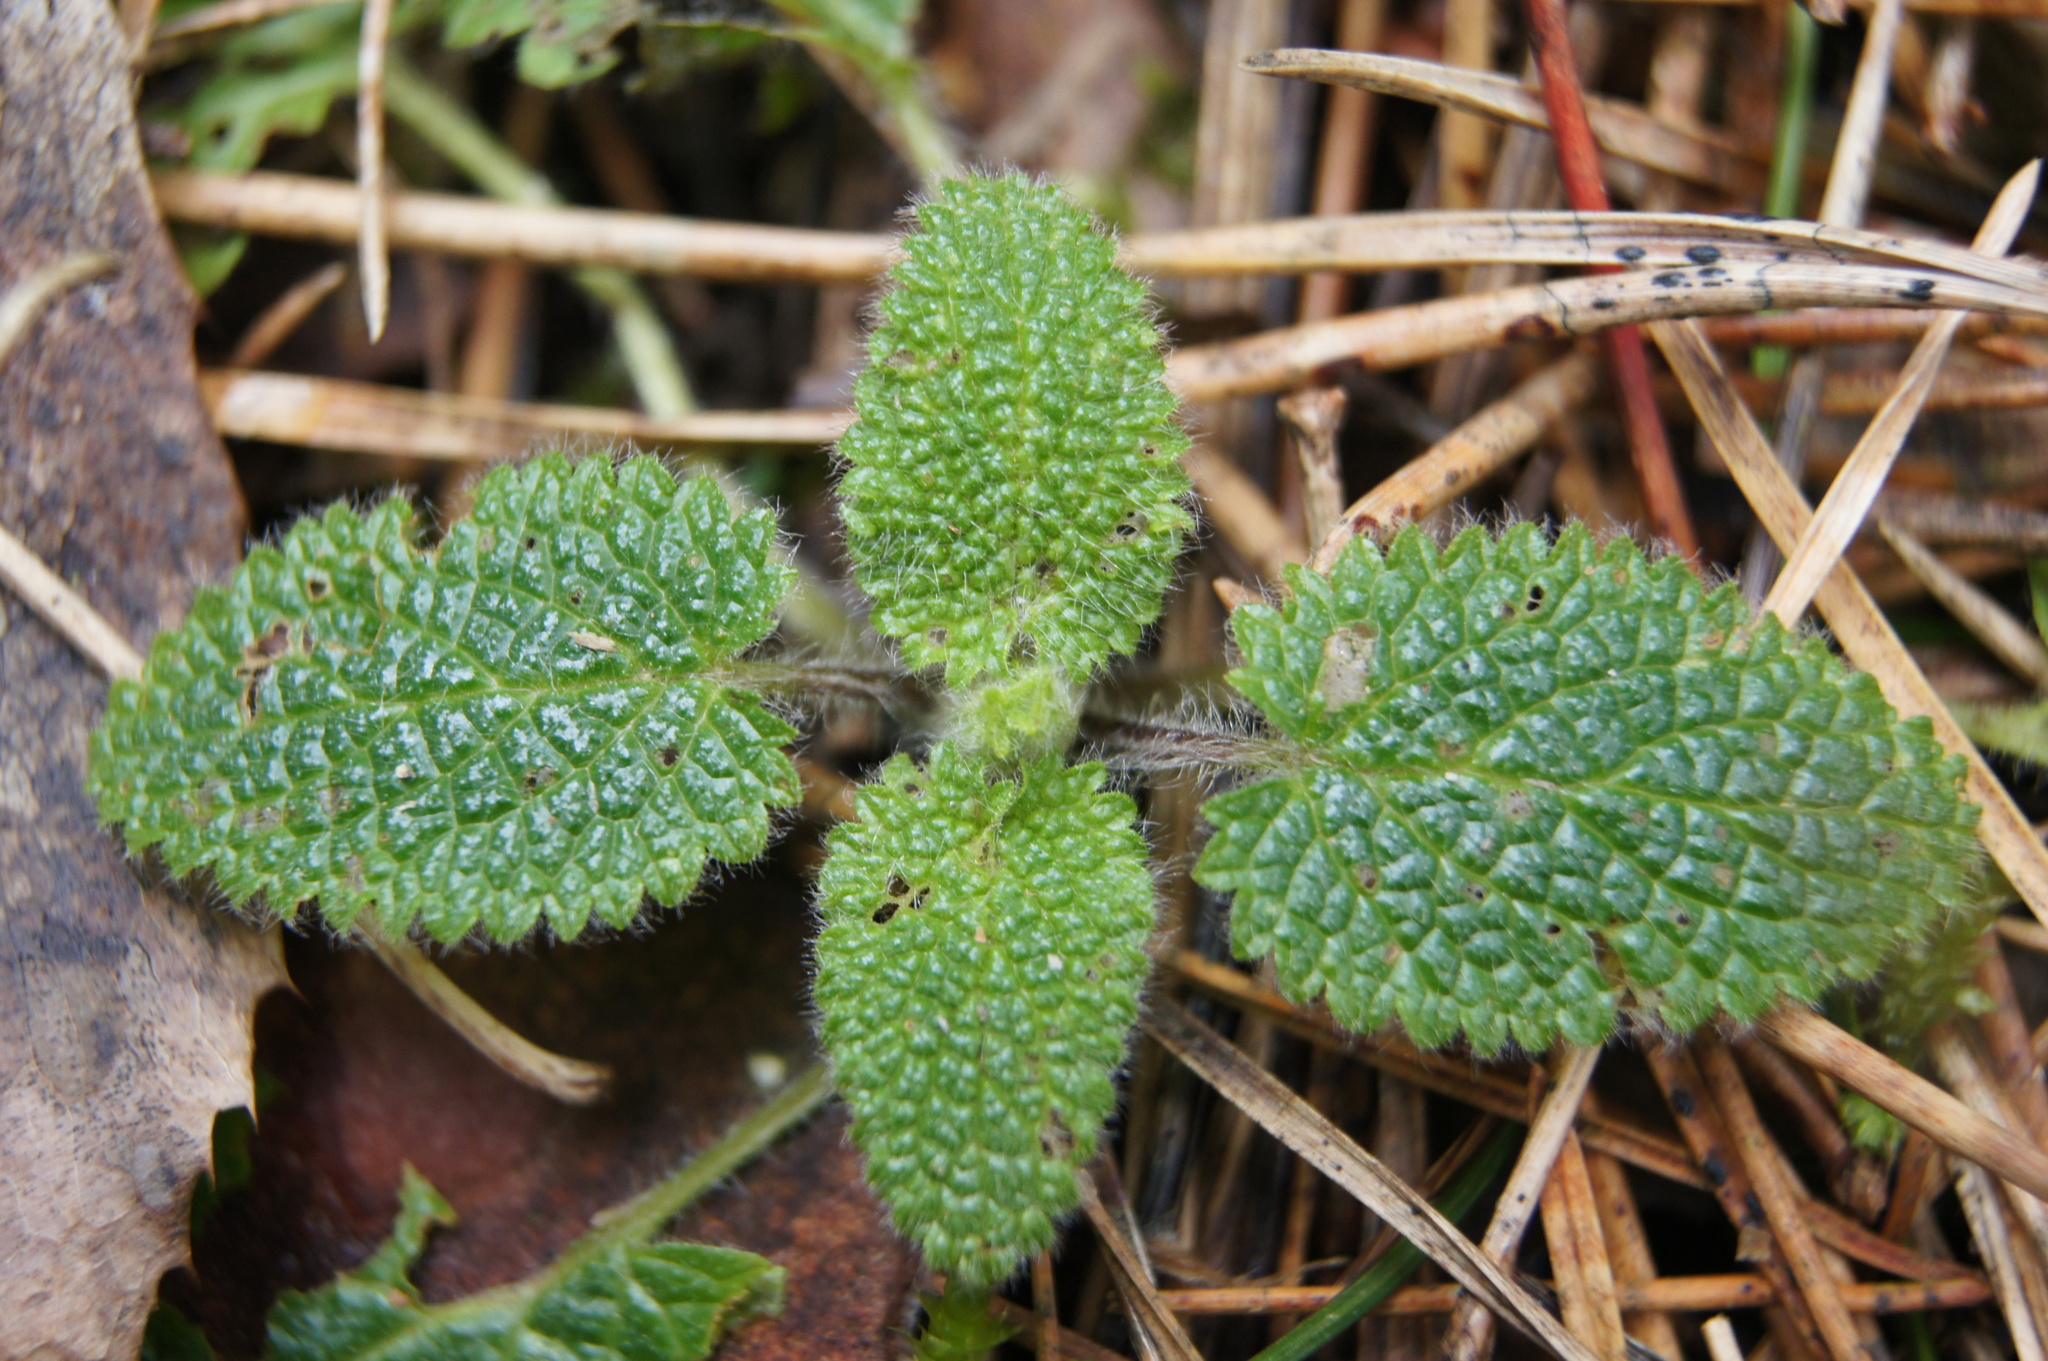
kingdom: Plantae
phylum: Tracheophyta
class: Magnoliopsida
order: Lamiales
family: Lamiaceae
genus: Stachys
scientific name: Stachys sylvatica
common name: Hedge woundwort
